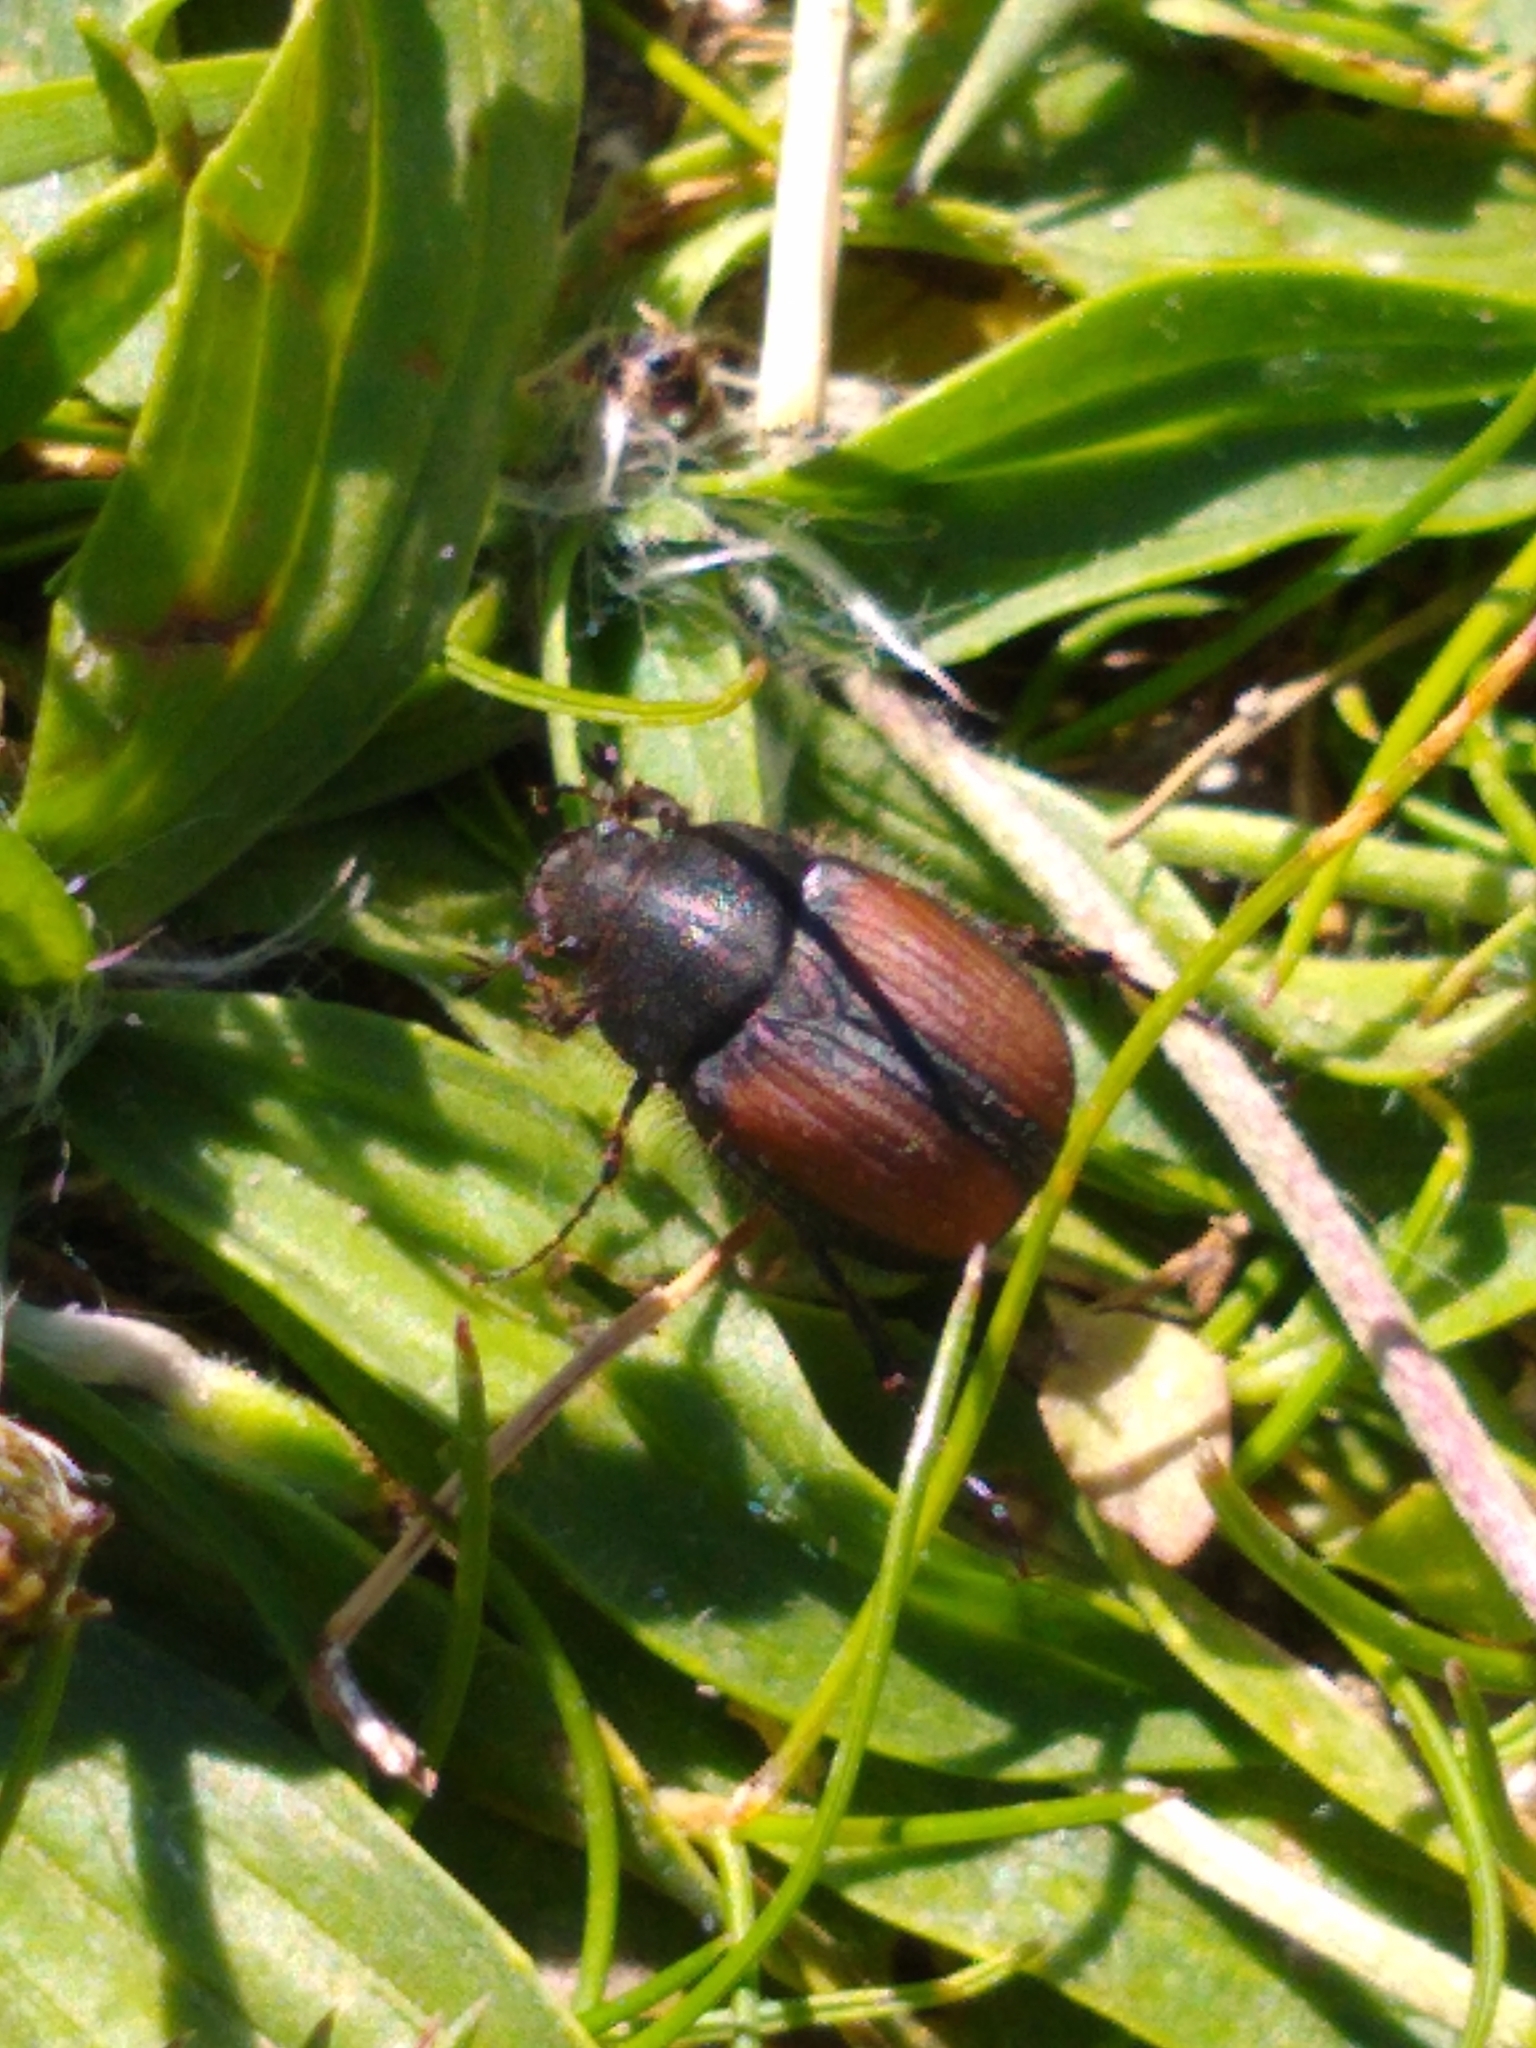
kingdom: Animalia
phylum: Arthropoda
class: Insecta
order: Coleoptera
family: Scarabaeidae
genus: Omaloplia
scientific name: Omaloplia ruricola
